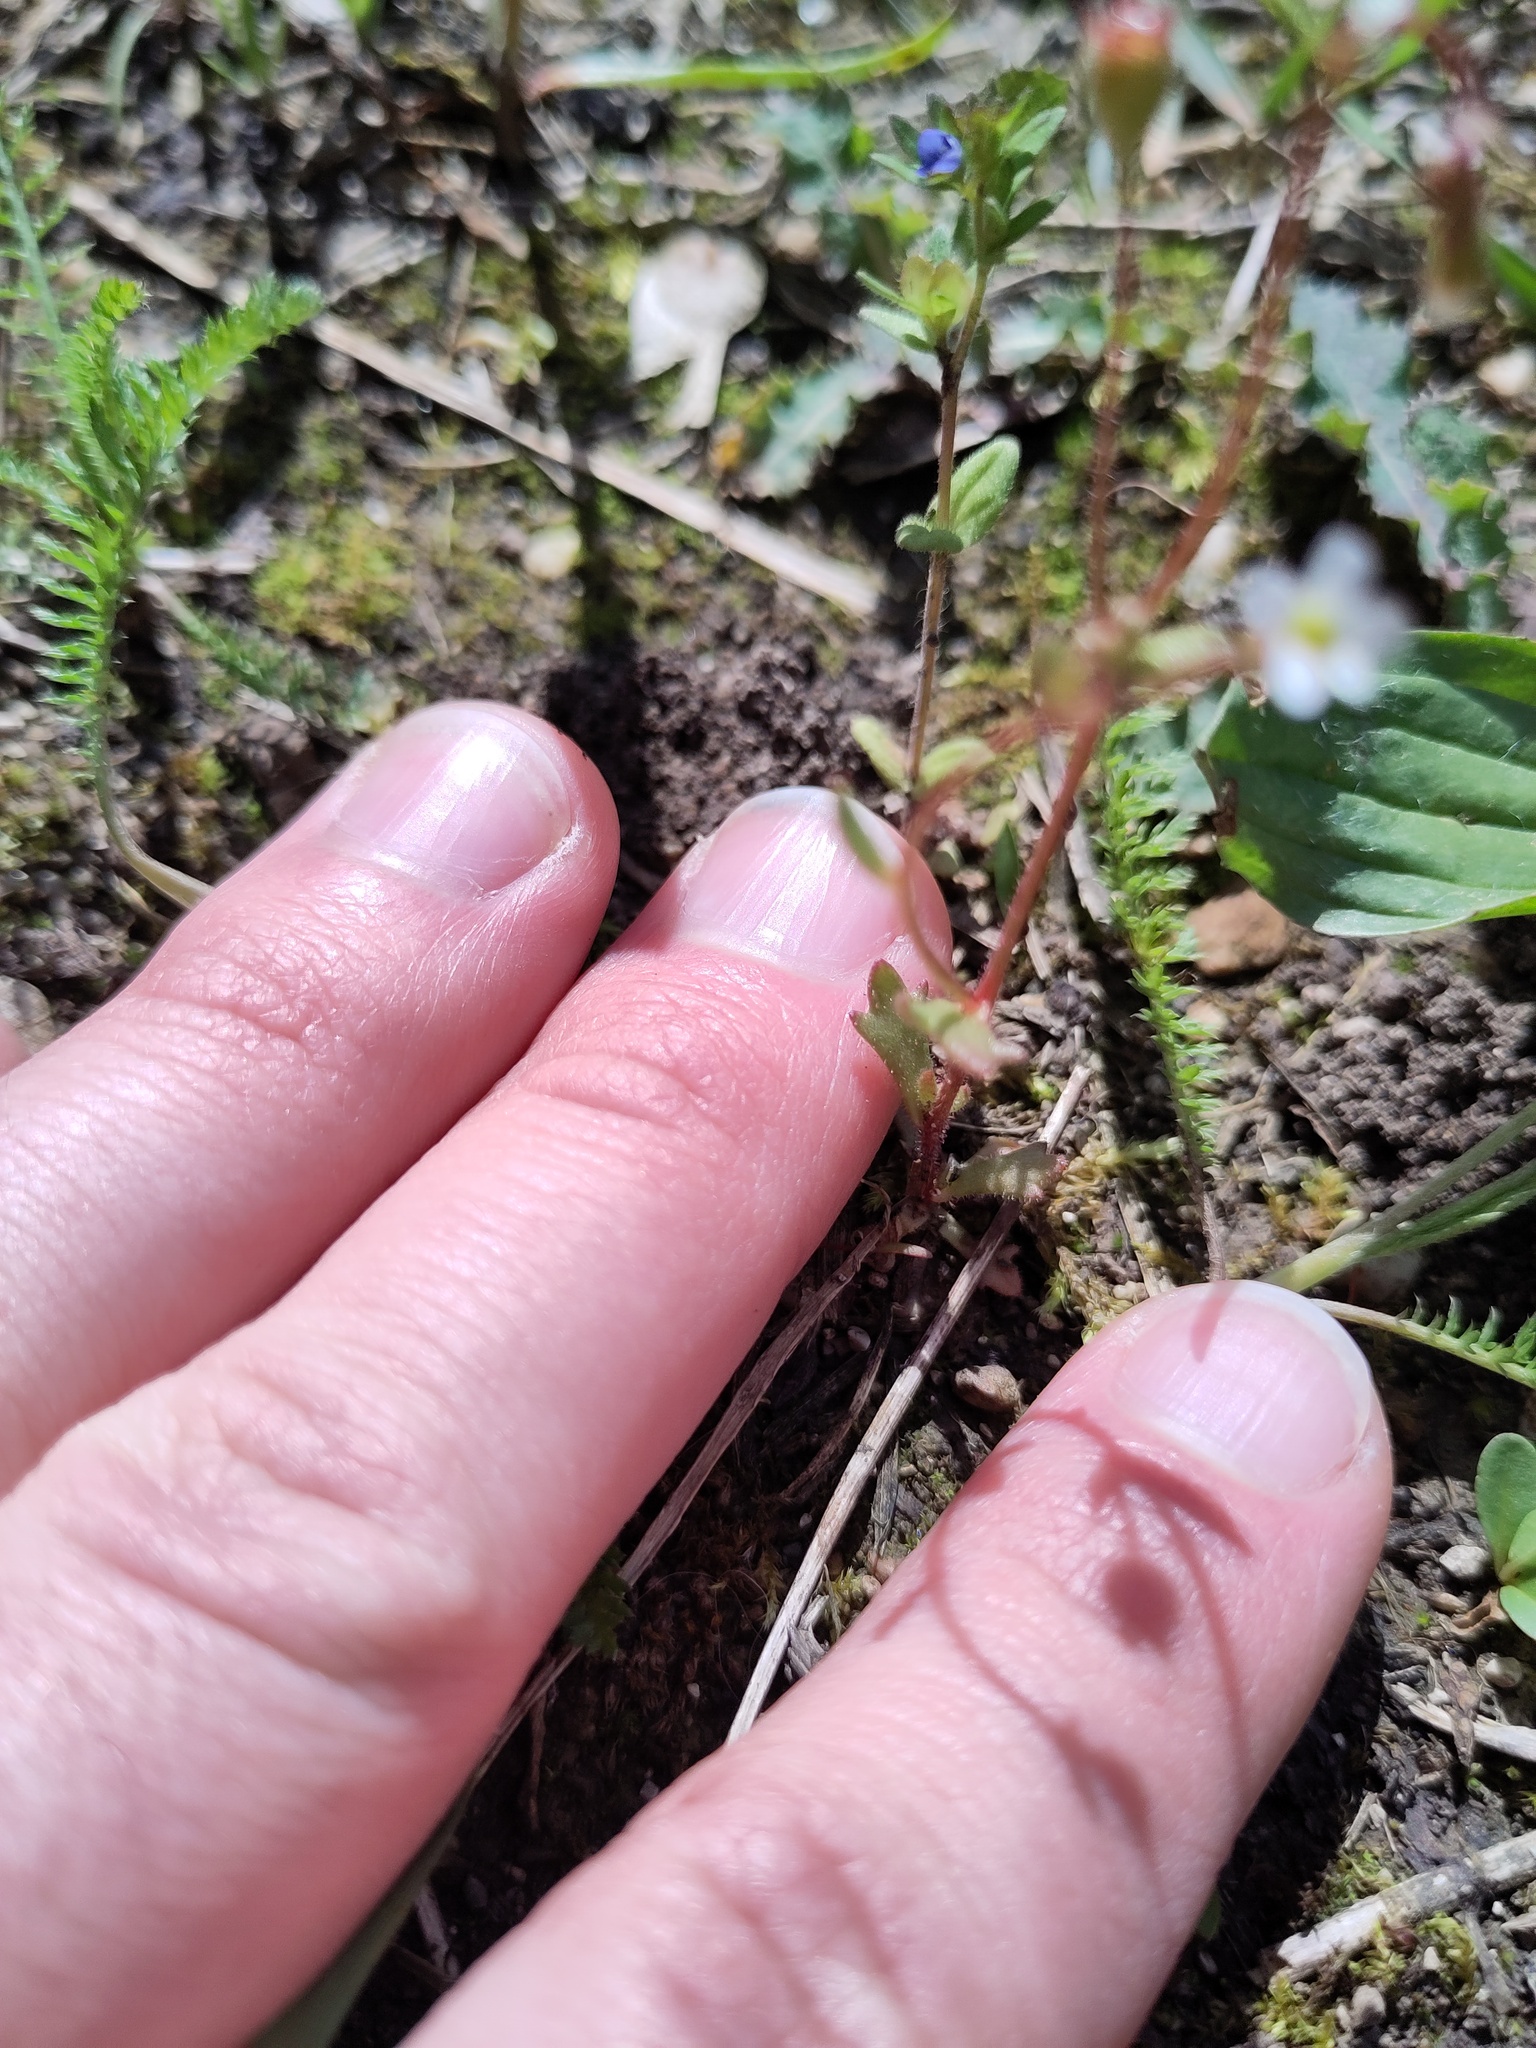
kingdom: Plantae
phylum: Tracheophyta
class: Magnoliopsida
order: Saxifragales
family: Saxifragaceae
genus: Saxifraga
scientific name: Saxifraga tridactylites
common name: Rue-leaved saxifrage
